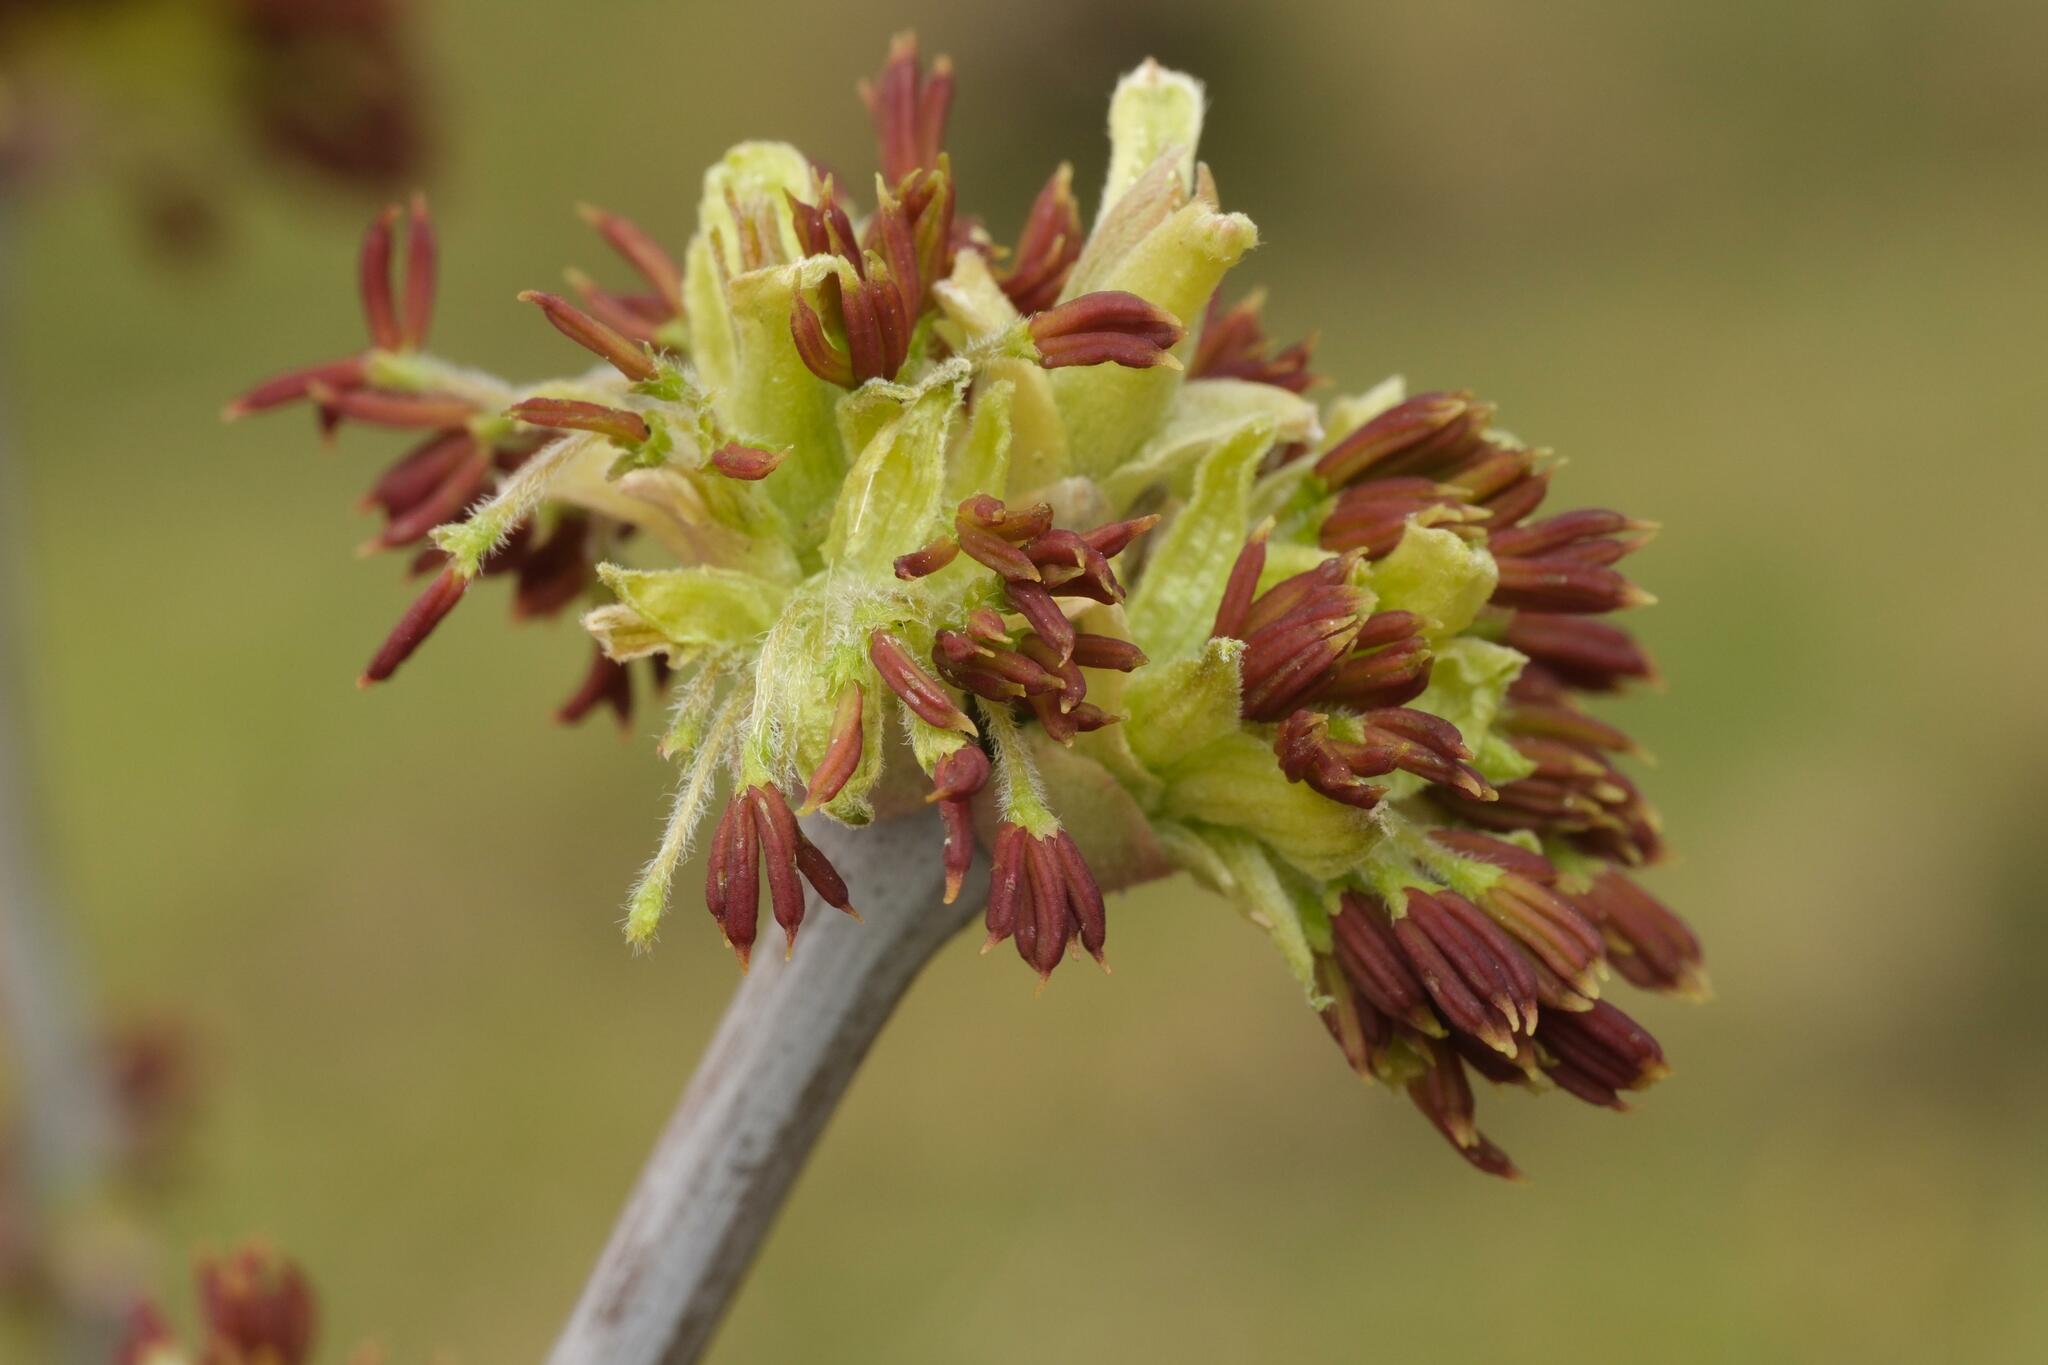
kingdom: Plantae
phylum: Tracheophyta
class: Magnoliopsida
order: Sapindales
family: Sapindaceae
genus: Acer
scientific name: Acer negundo
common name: Ashleaf maple
